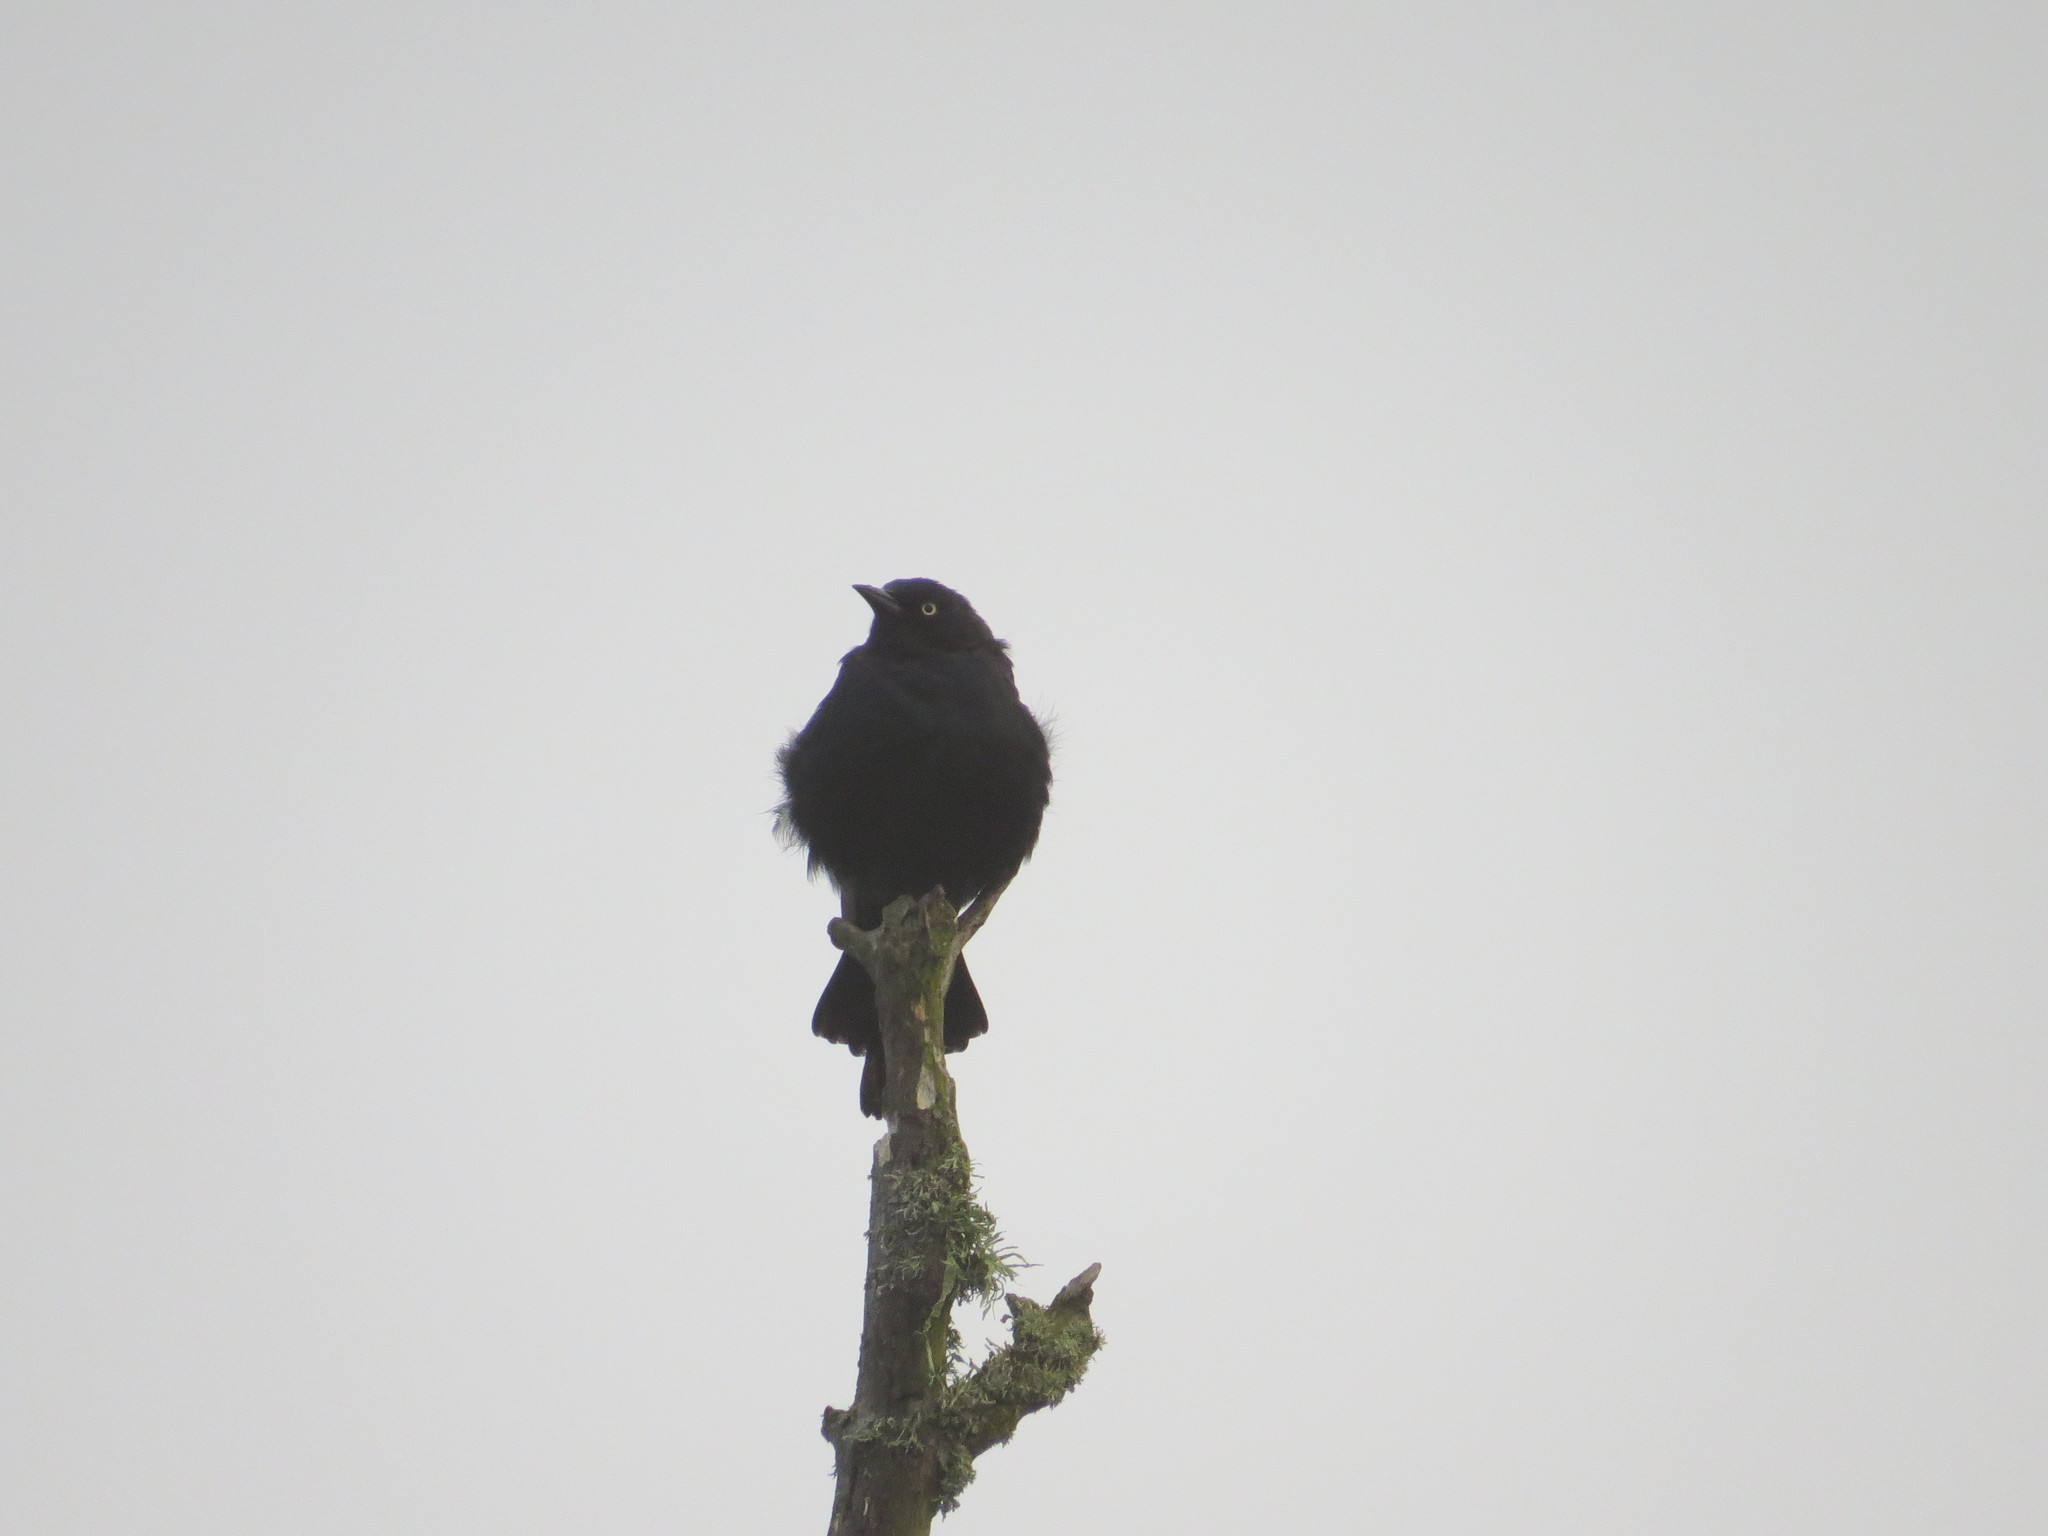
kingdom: Animalia
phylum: Chordata
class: Aves
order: Passeriformes
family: Icteridae
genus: Euphagus
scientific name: Euphagus cyanocephalus
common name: Brewer's blackbird
